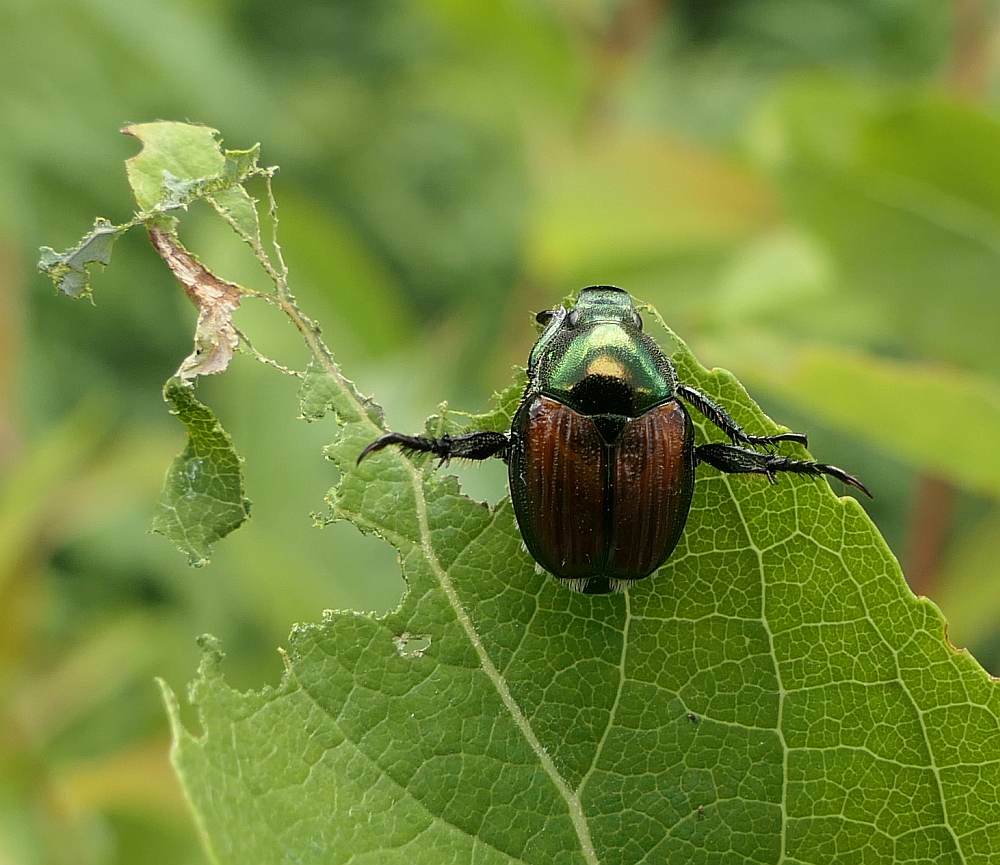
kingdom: Animalia
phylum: Arthropoda
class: Insecta
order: Coleoptera
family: Scarabaeidae
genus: Popillia
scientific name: Popillia japonica
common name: Japanese beetle
